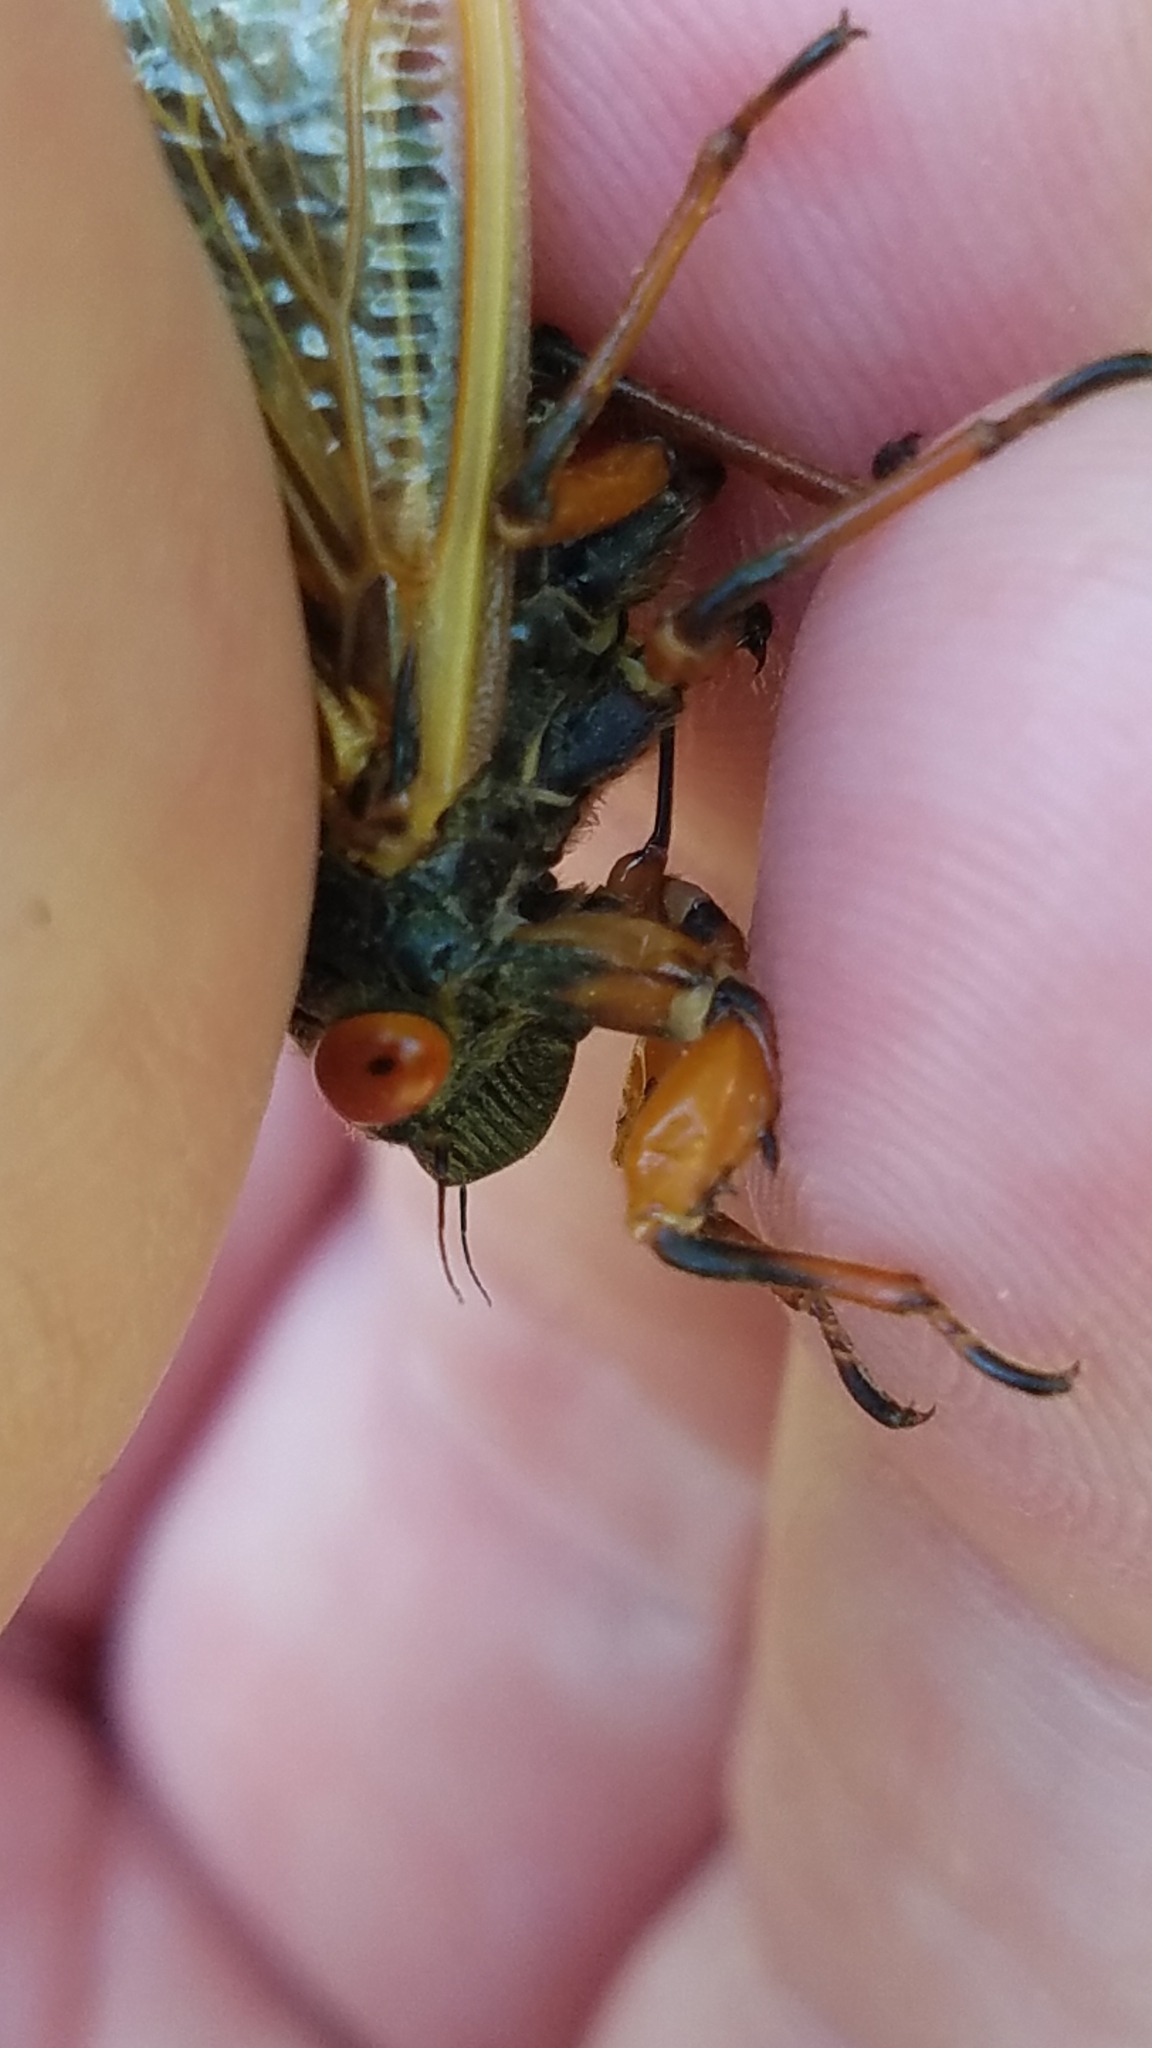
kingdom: Animalia
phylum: Arthropoda
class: Insecta
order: Hemiptera
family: Cicadidae
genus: Magicicada
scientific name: Magicicada cassini
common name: Cassin's 17-year cicada
